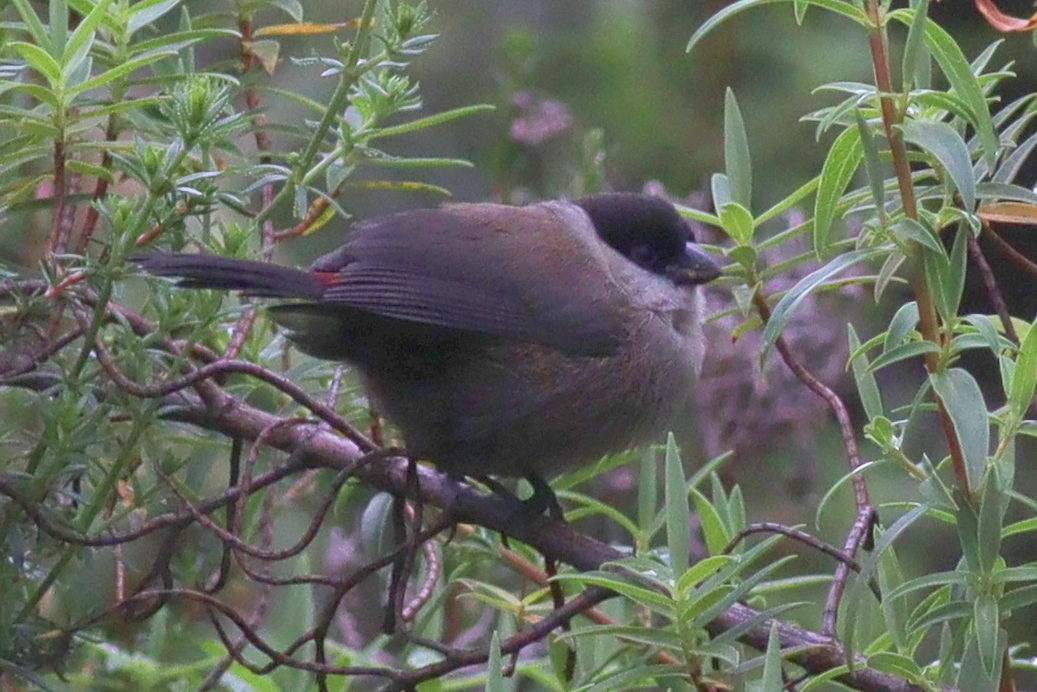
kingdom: Animalia
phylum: Chordata
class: Aves
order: Passeriformes
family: Estrildidae
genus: Estrilda
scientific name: Estrilda kandti
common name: Kandt's waxbill
